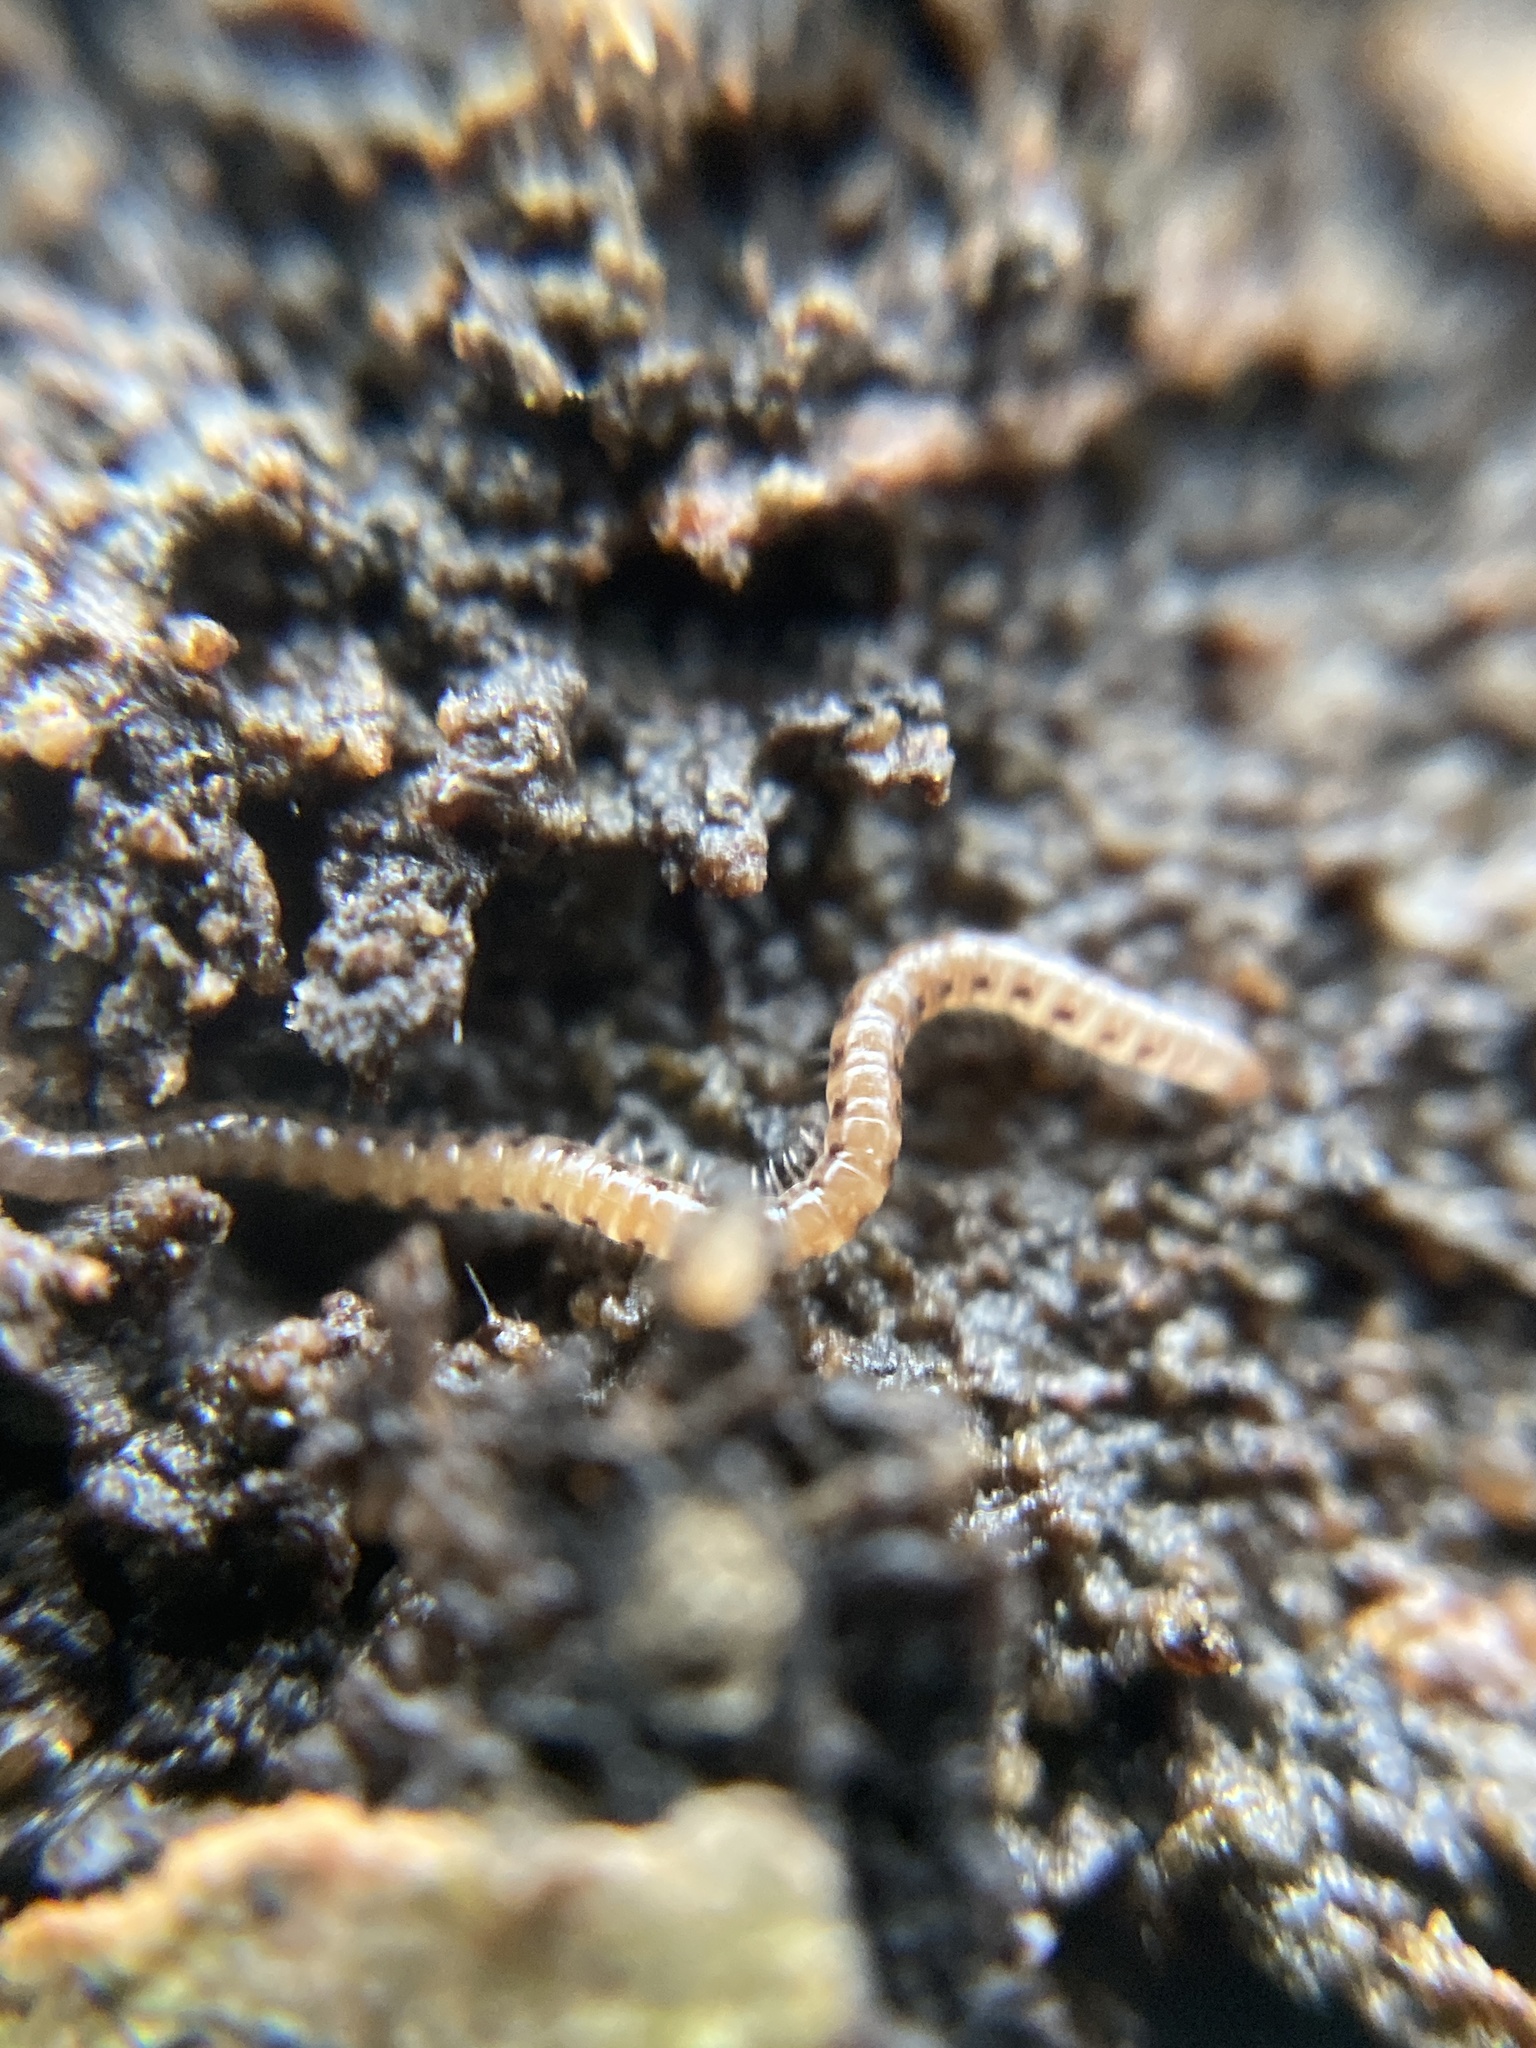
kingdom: Animalia
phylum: Arthropoda
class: Diplopoda
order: Julida
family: Blaniulidae
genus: Choneiulus
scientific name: Choneiulus palmatus
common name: Millipede
